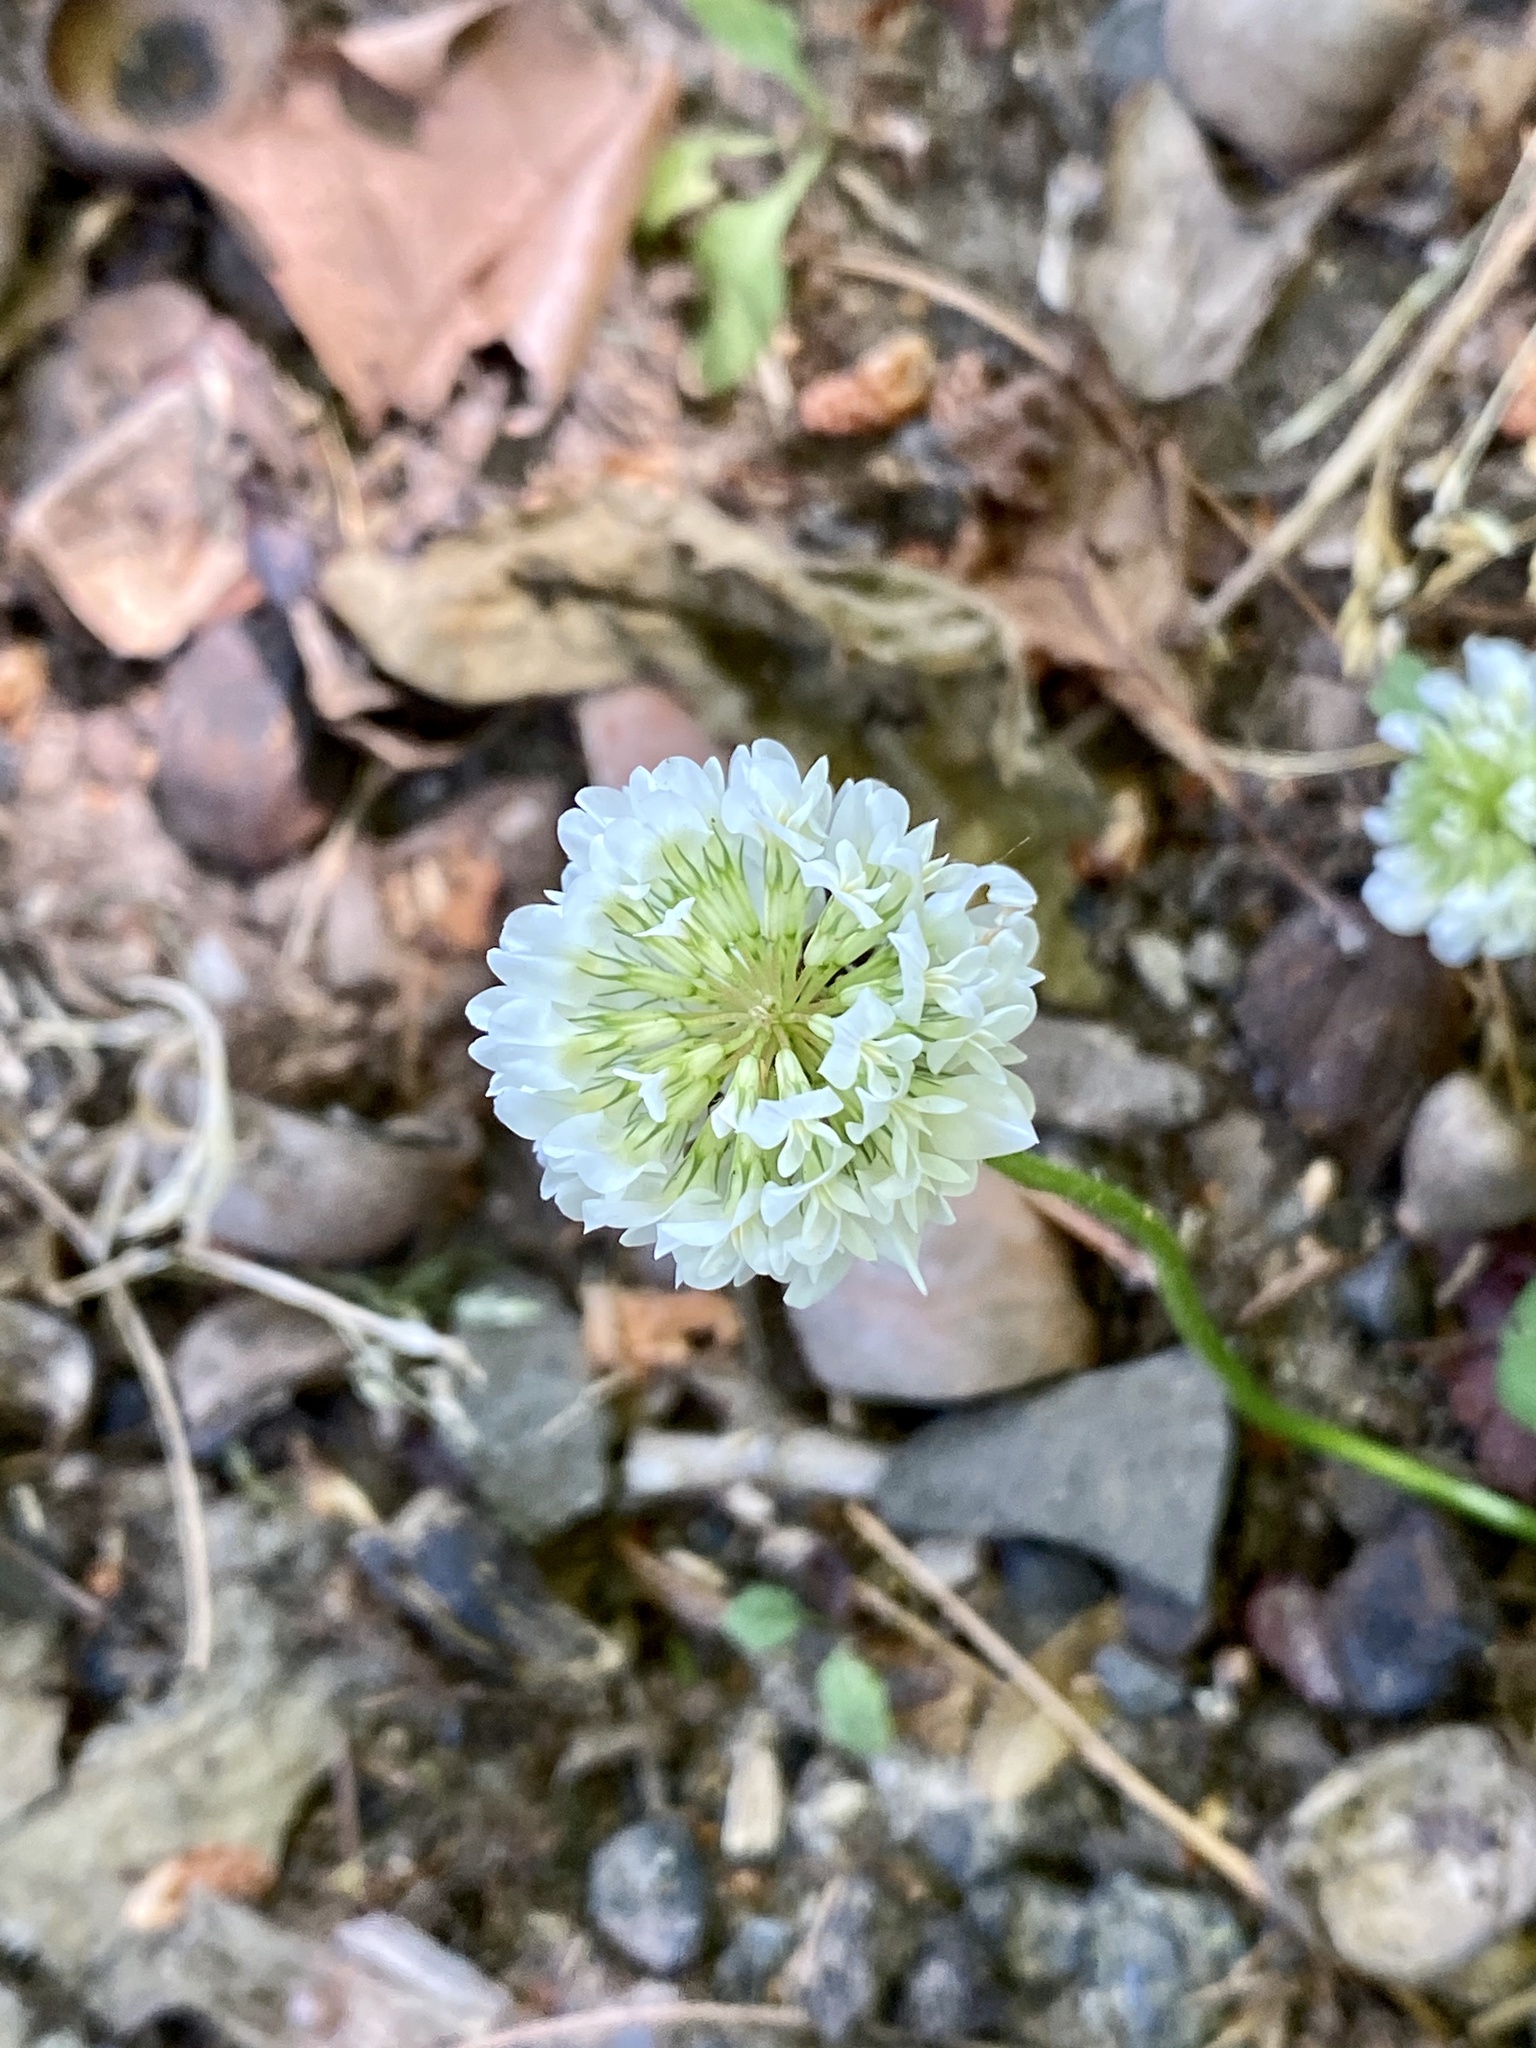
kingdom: Plantae
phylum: Tracheophyta
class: Magnoliopsida
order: Fabales
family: Fabaceae
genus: Trifolium
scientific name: Trifolium repens
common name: White clover
